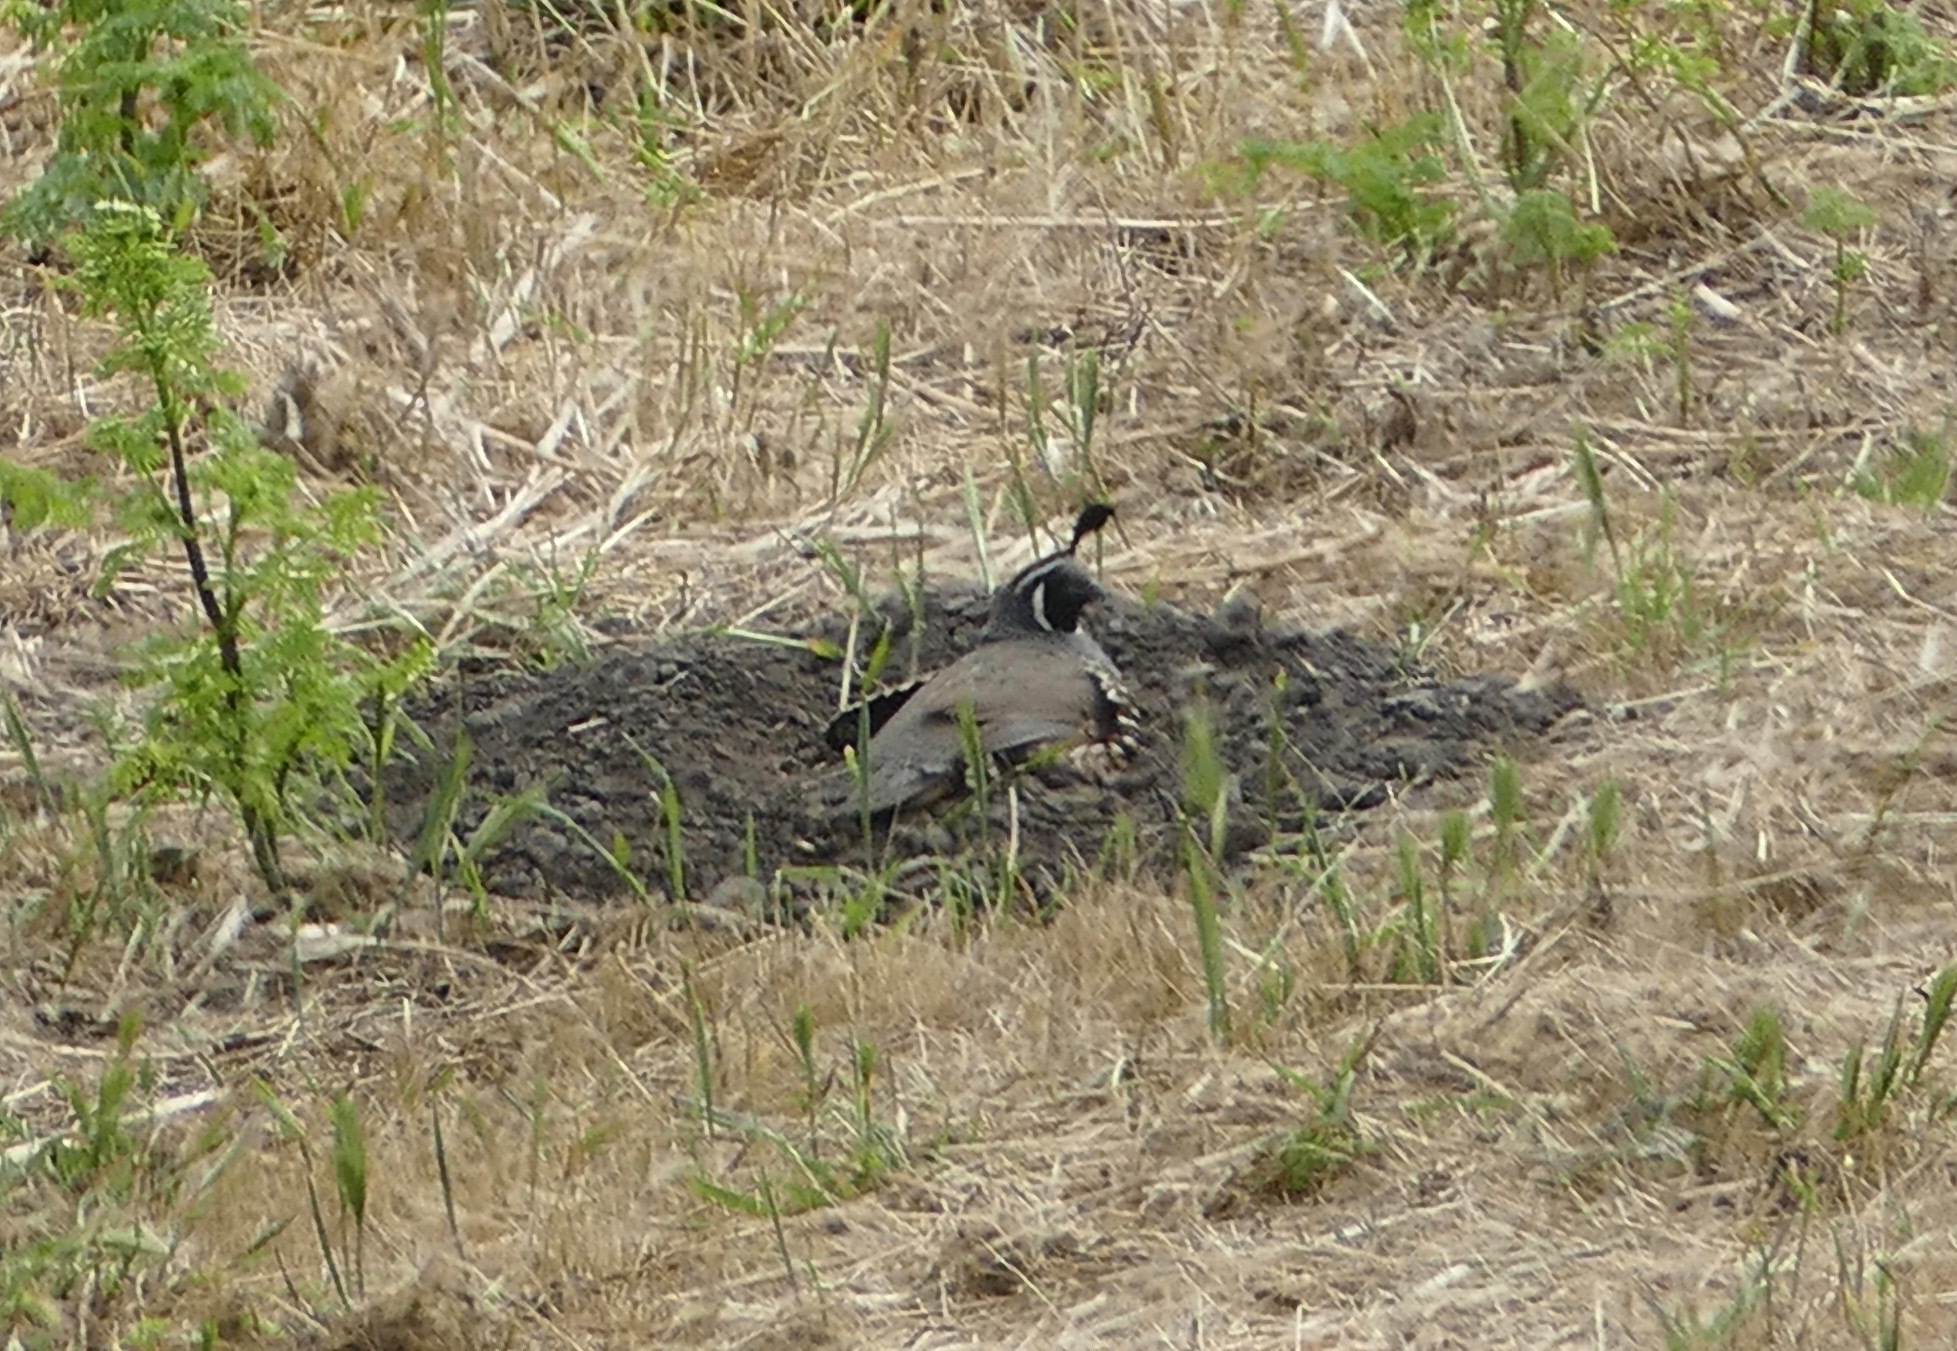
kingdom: Animalia
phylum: Chordata
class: Aves
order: Galliformes
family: Odontophoridae
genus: Callipepla
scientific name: Callipepla californica
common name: California quail
